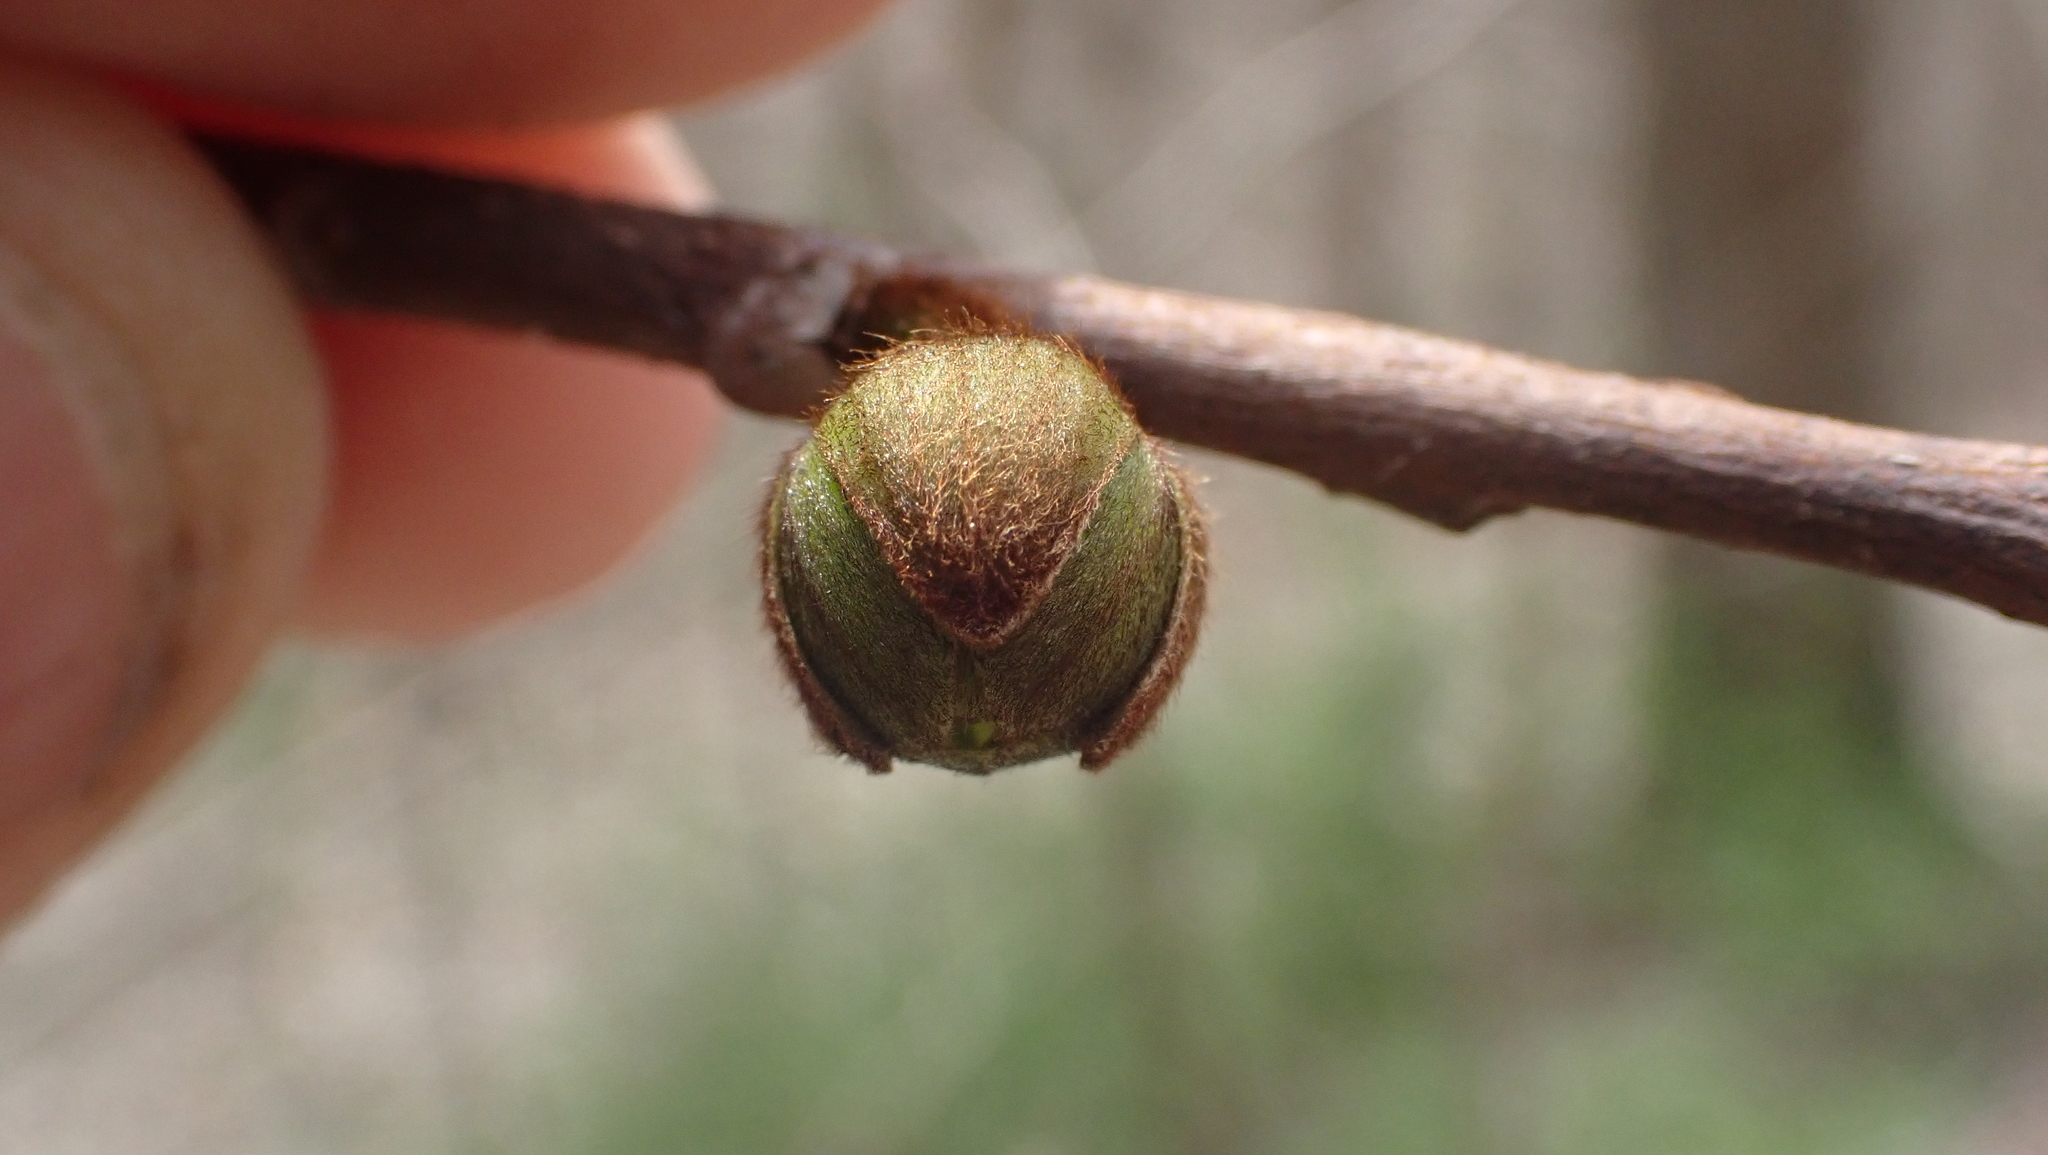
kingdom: Plantae
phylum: Tracheophyta
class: Magnoliopsida
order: Magnoliales
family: Annonaceae
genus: Asimina
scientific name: Asimina triloba
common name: Dog-banana
